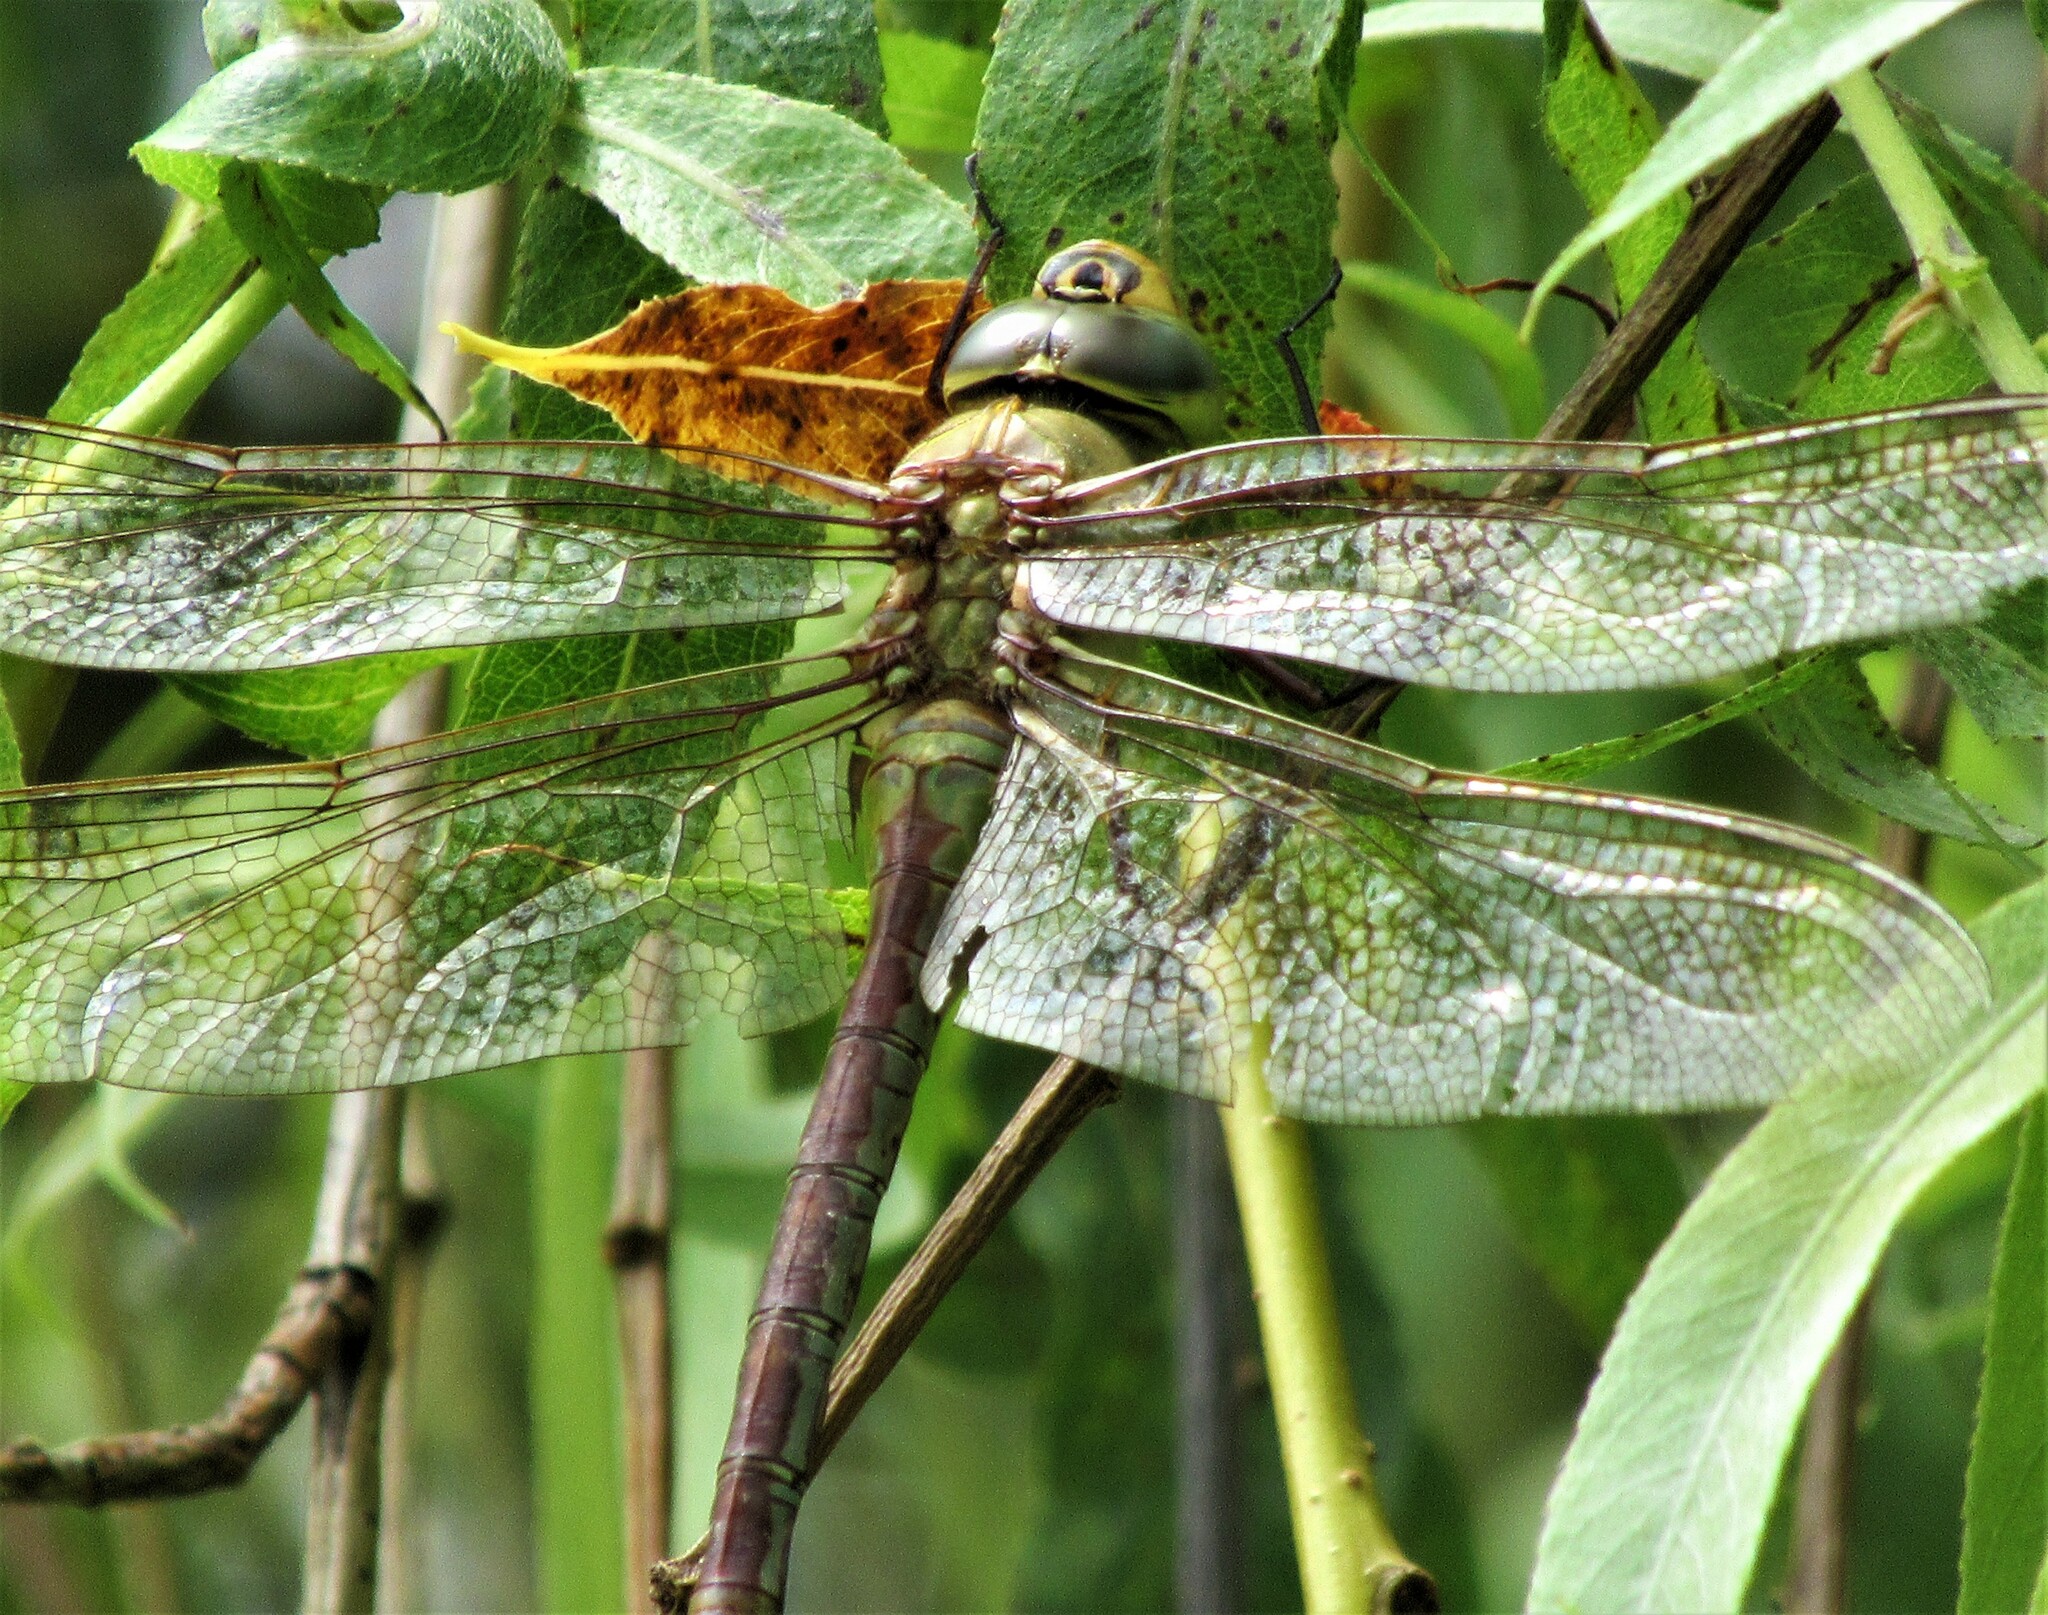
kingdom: Animalia
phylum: Arthropoda
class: Insecta
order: Odonata
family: Aeshnidae
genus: Anax
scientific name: Anax junius
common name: Common green darner
